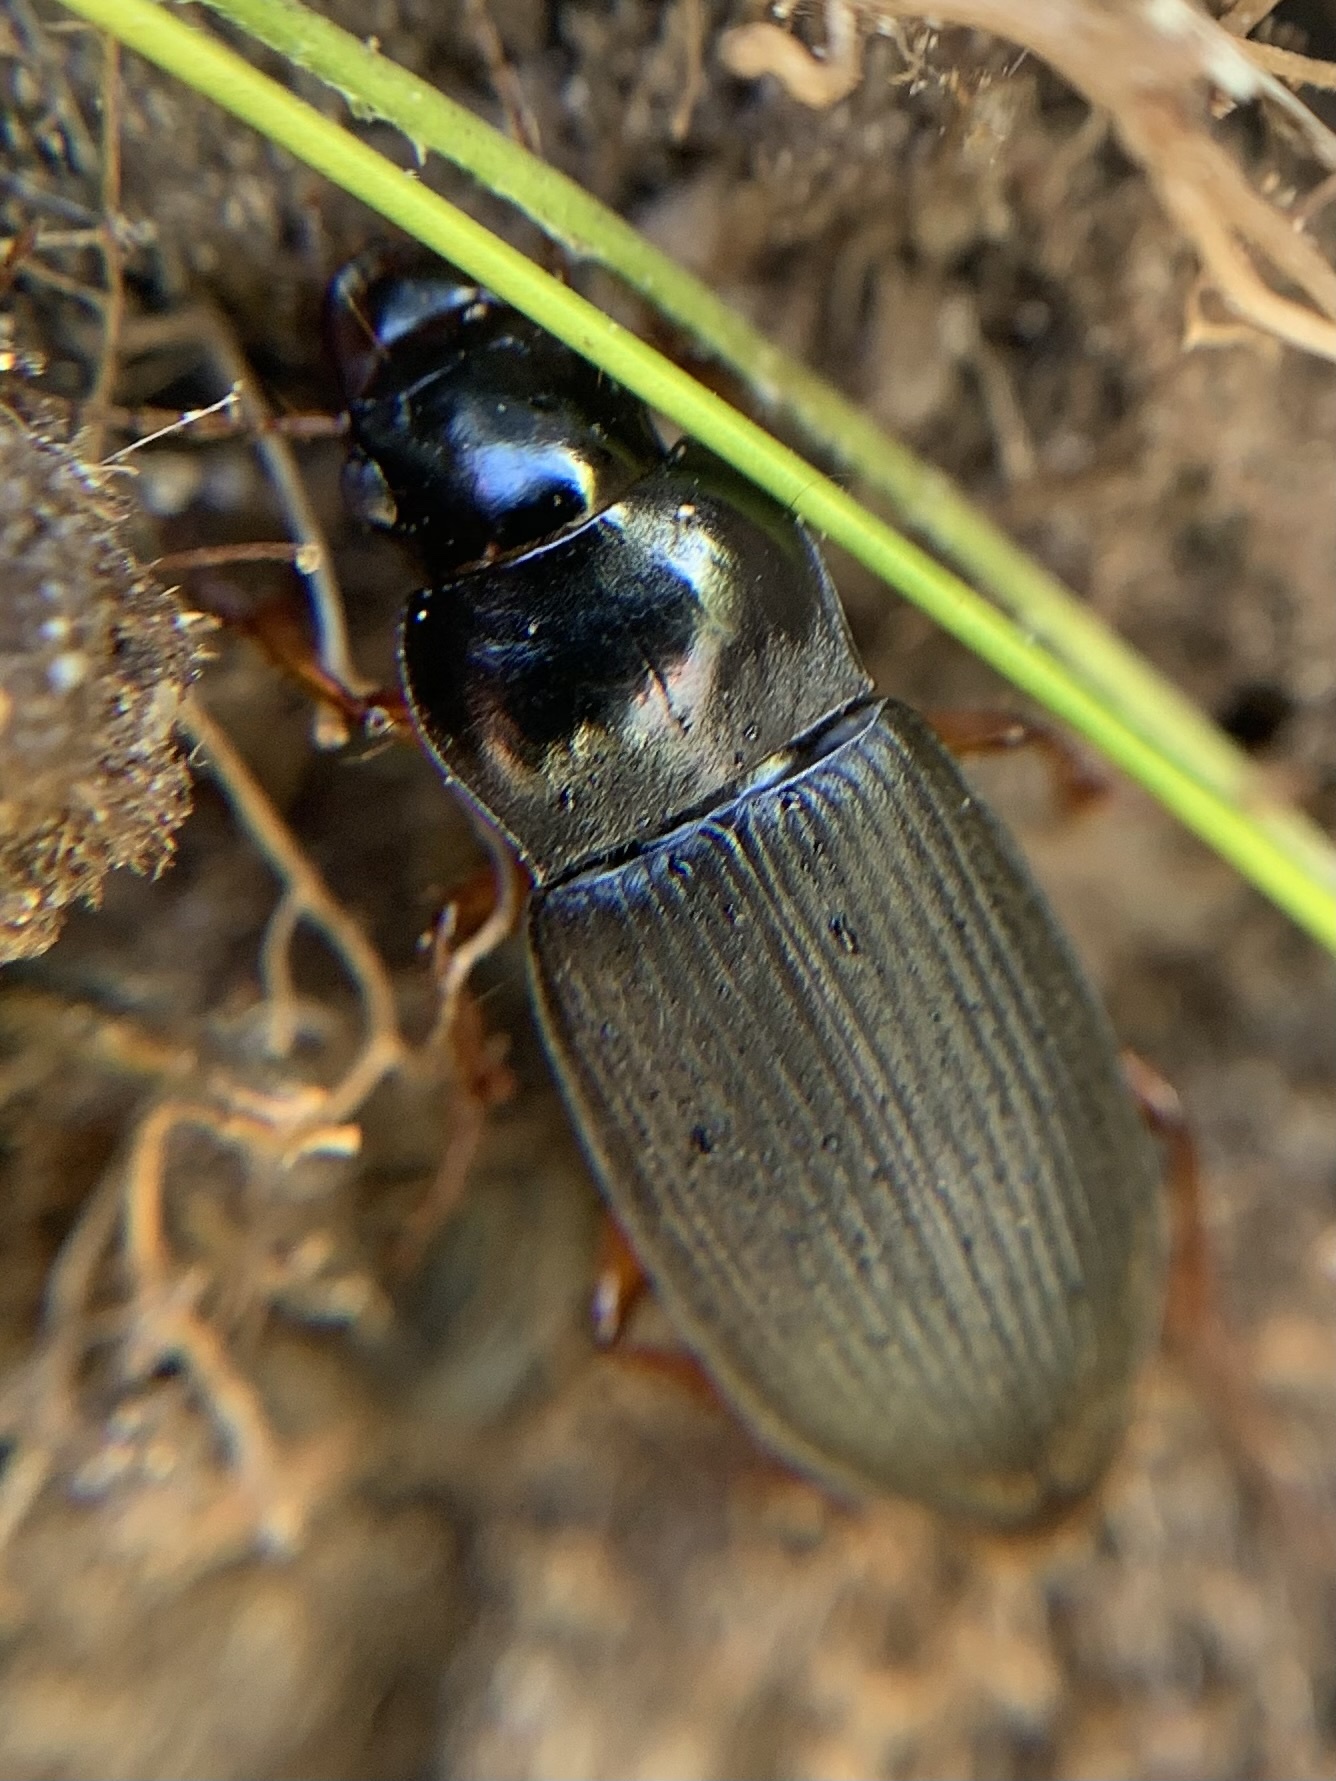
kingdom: Animalia
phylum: Arthropoda
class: Insecta
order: Coleoptera
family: Carabidae
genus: Harpalus
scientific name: Harpalus rufipes
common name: Strawberry harp ground beetle
